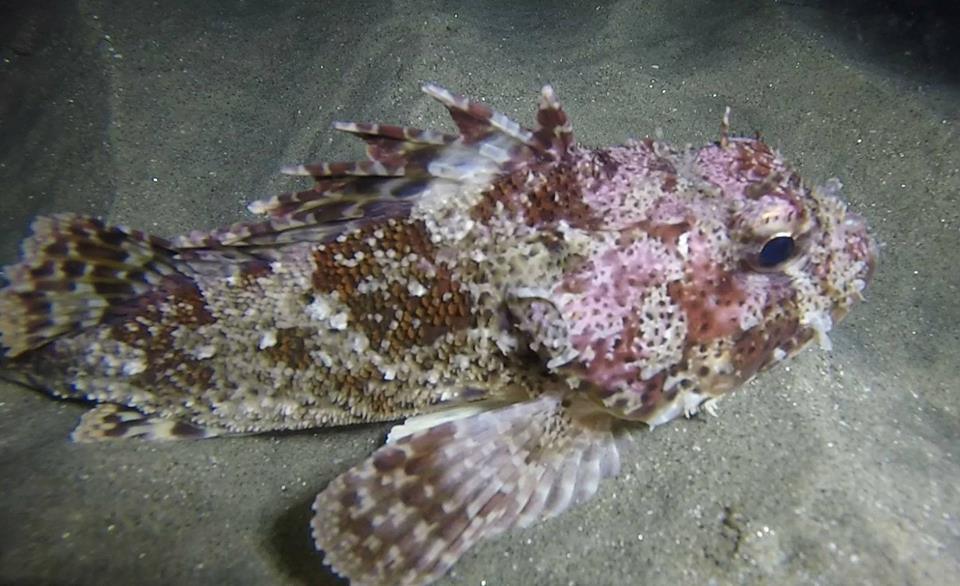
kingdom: Animalia
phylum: Chordata
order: Scorpaeniformes
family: Scorpaenidae
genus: Scorpaena
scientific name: Scorpaena guttata
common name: California scorpionfish
